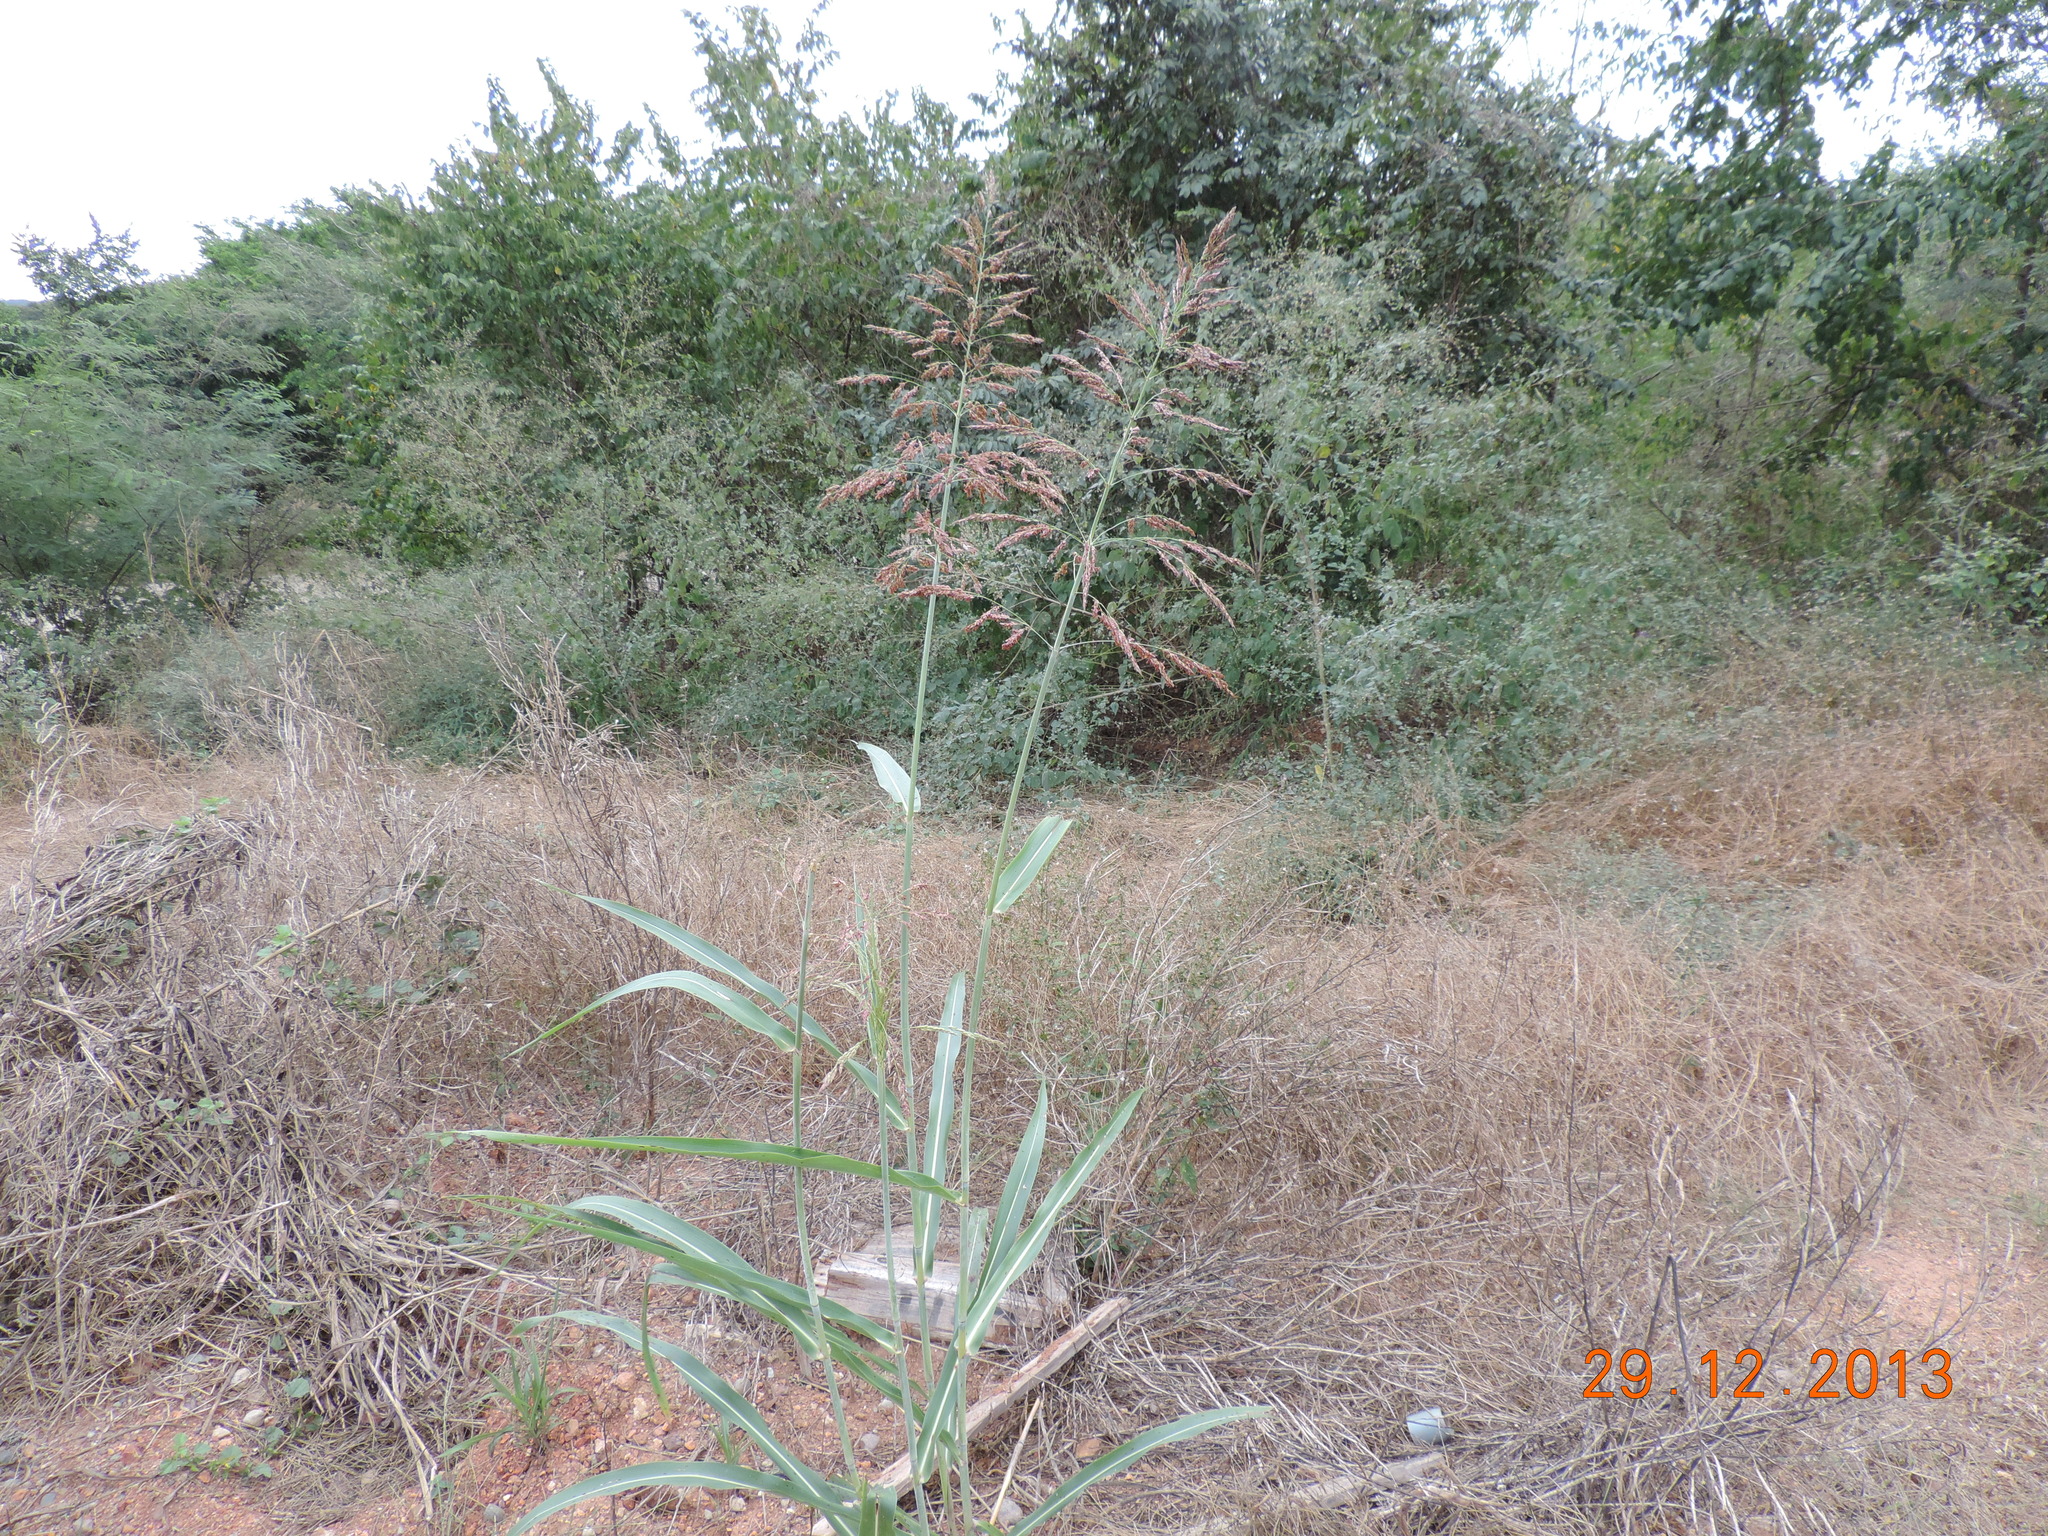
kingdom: Plantae
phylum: Tracheophyta
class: Liliopsida
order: Poales
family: Poaceae
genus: Sorghum
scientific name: Sorghum halepense
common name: Johnson-grass
